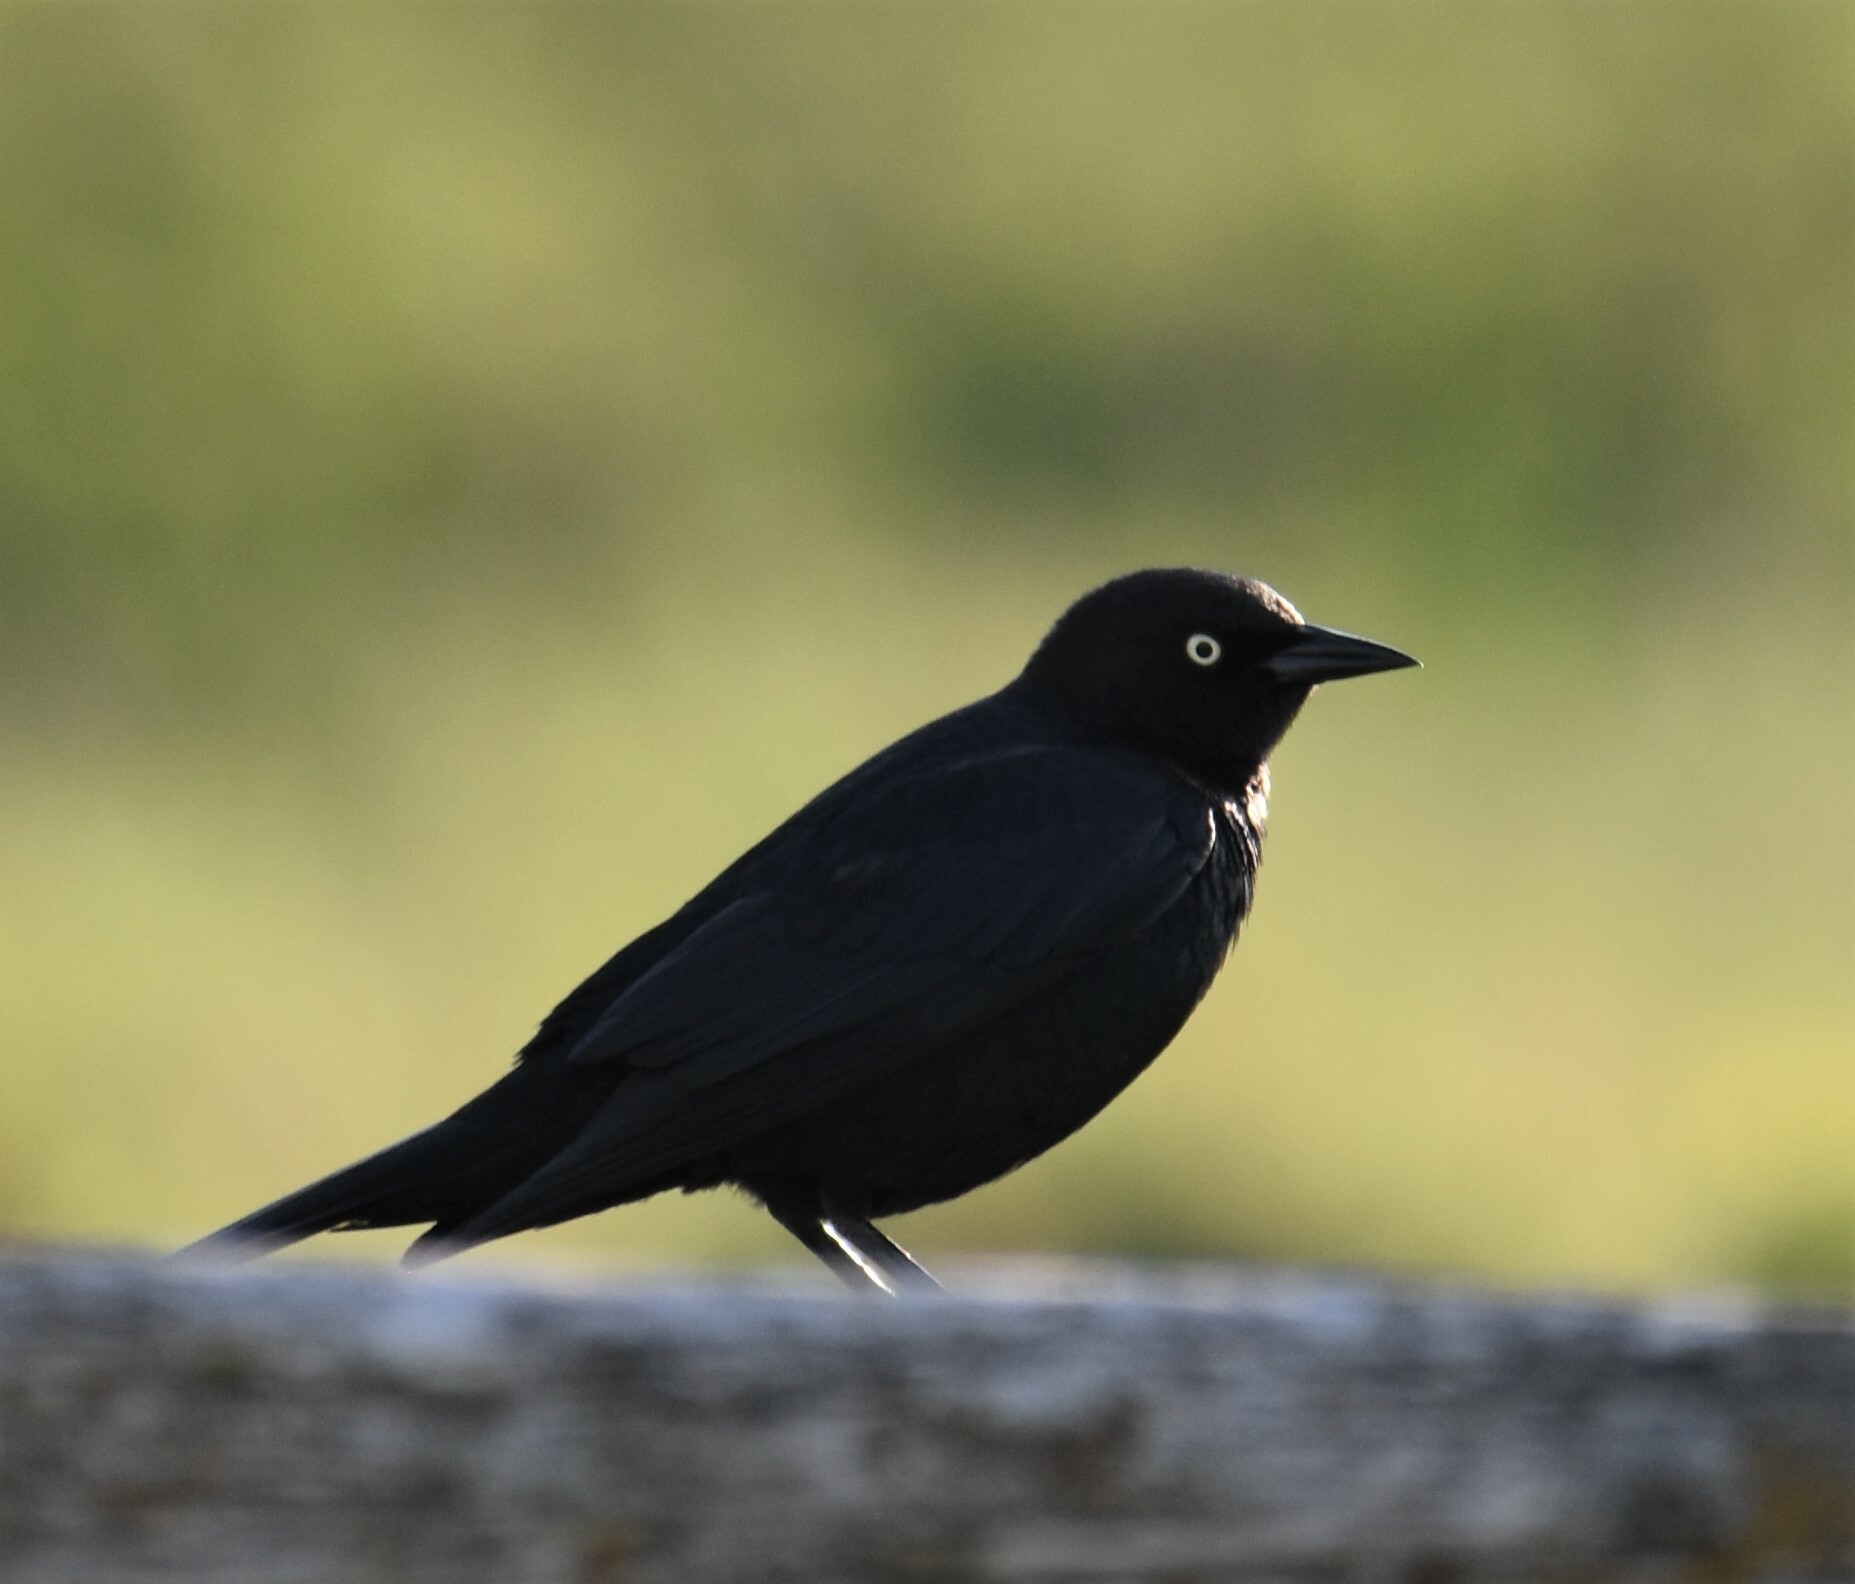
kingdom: Animalia
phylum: Chordata
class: Aves
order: Passeriformes
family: Icteridae
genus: Euphagus
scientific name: Euphagus cyanocephalus
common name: Brewer's blackbird
